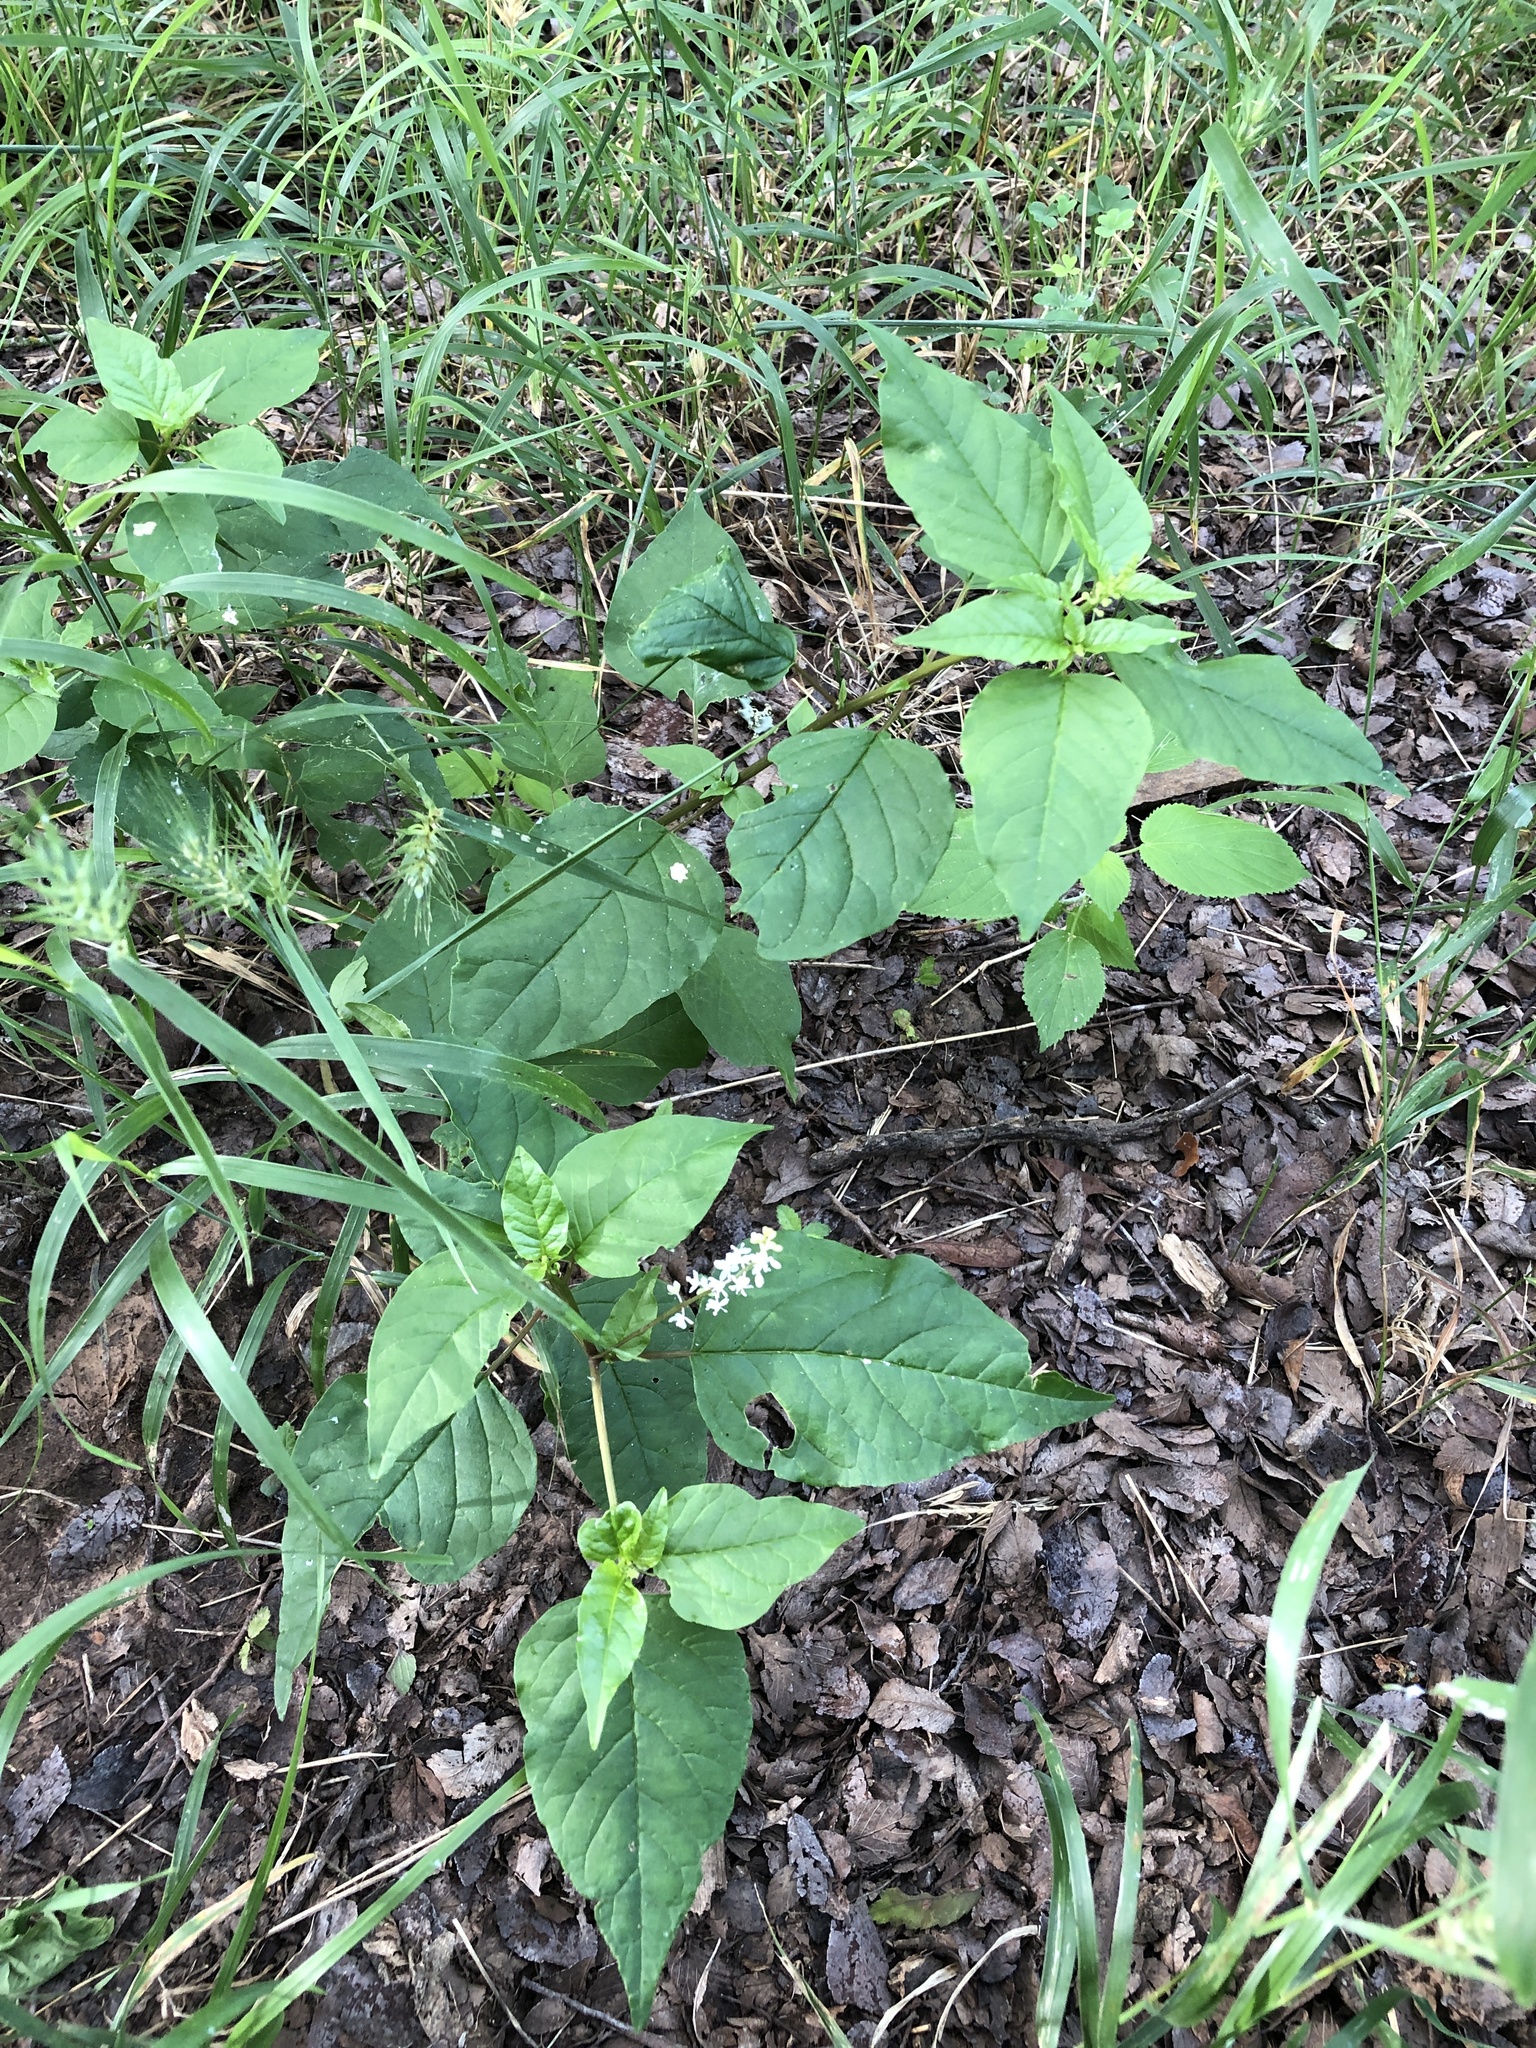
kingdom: Plantae
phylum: Tracheophyta
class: Magnoliopsida
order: Caryophyllales
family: Phytolaccaceae
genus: Rivina
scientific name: Rivina humilis
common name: Rougeplant
